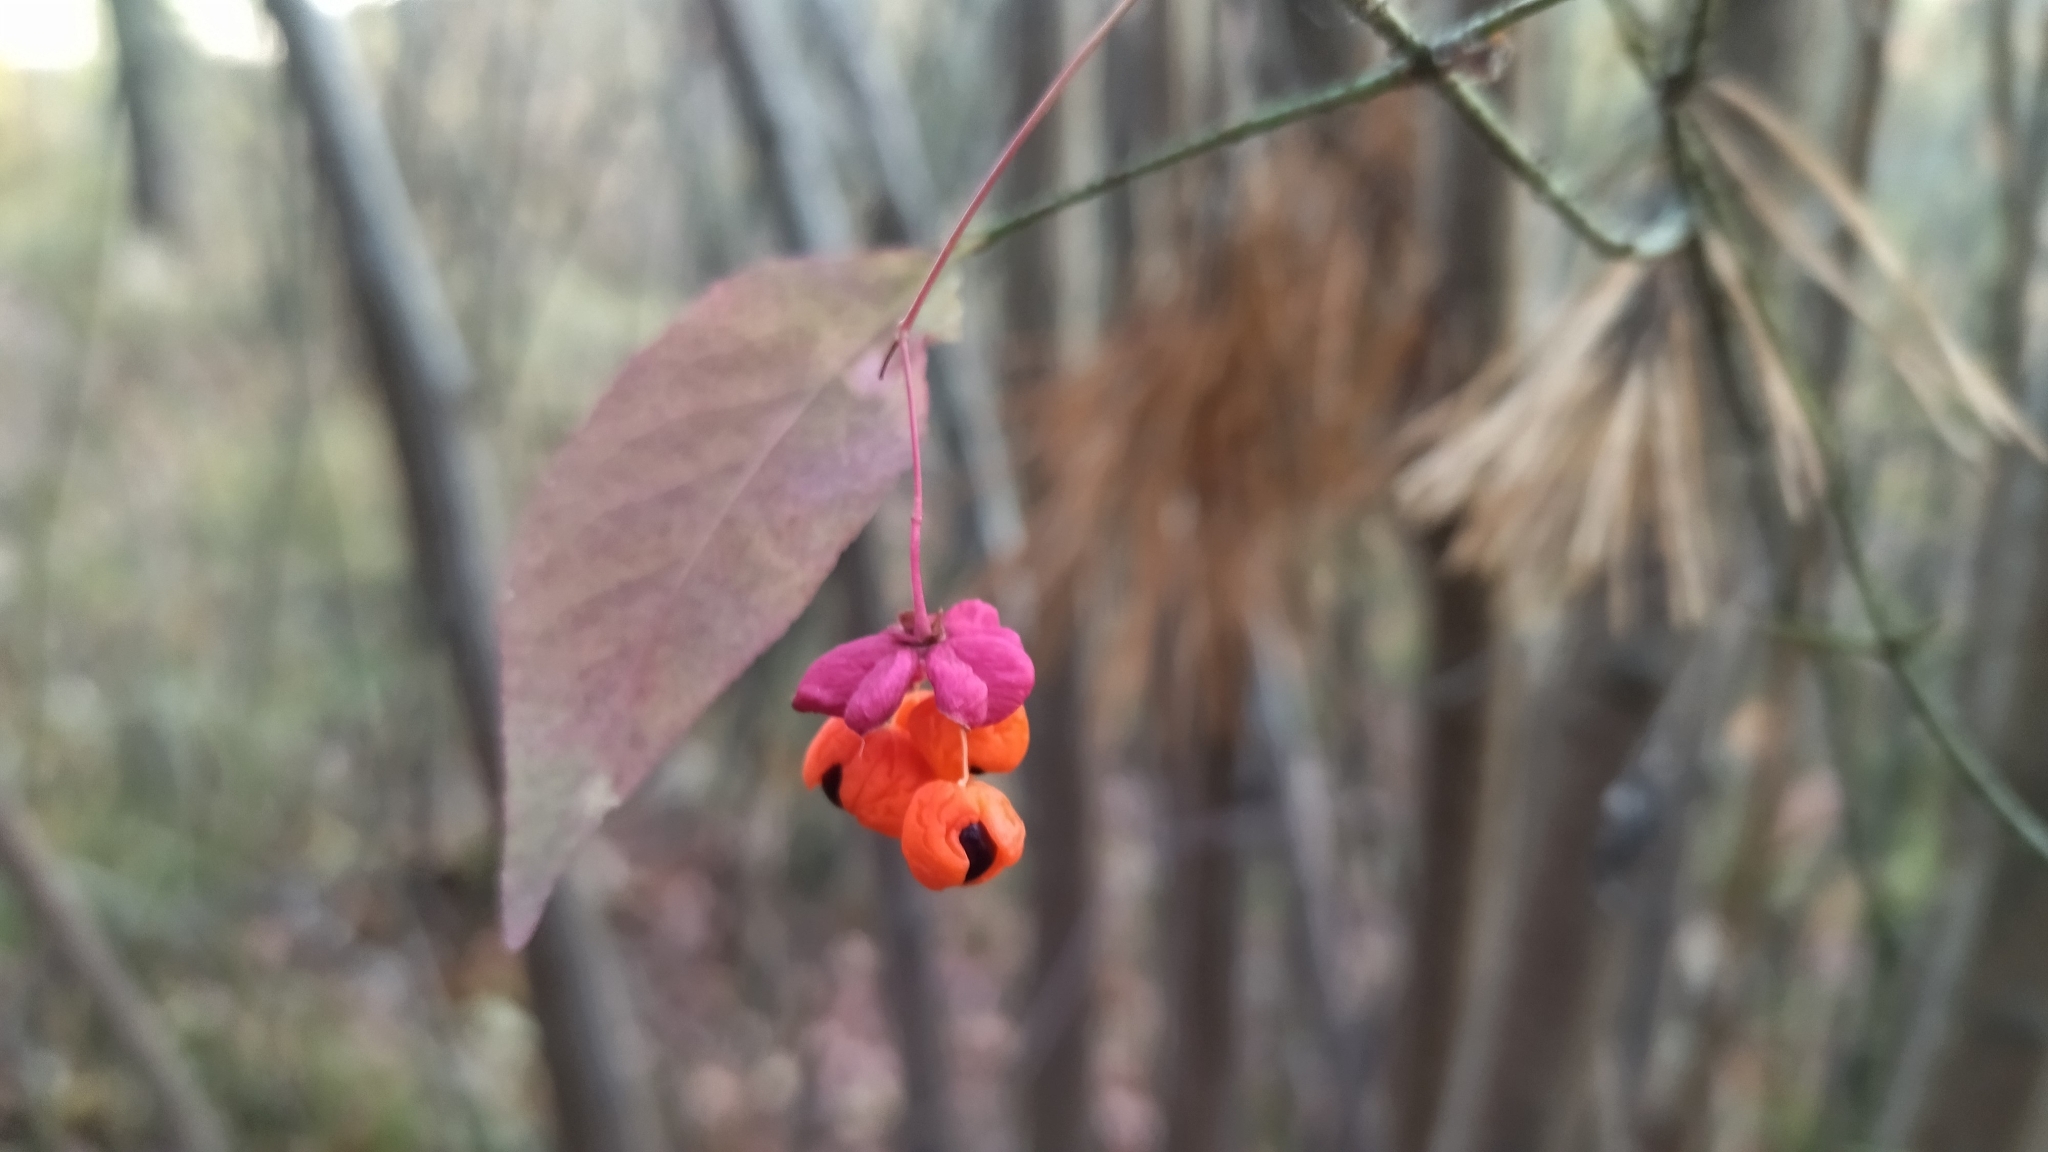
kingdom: Plantae
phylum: Tracheophyta
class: Magnoliopsida
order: Celastrales
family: Celastraceae
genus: Euonymus
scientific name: Euonymus verrucosus
